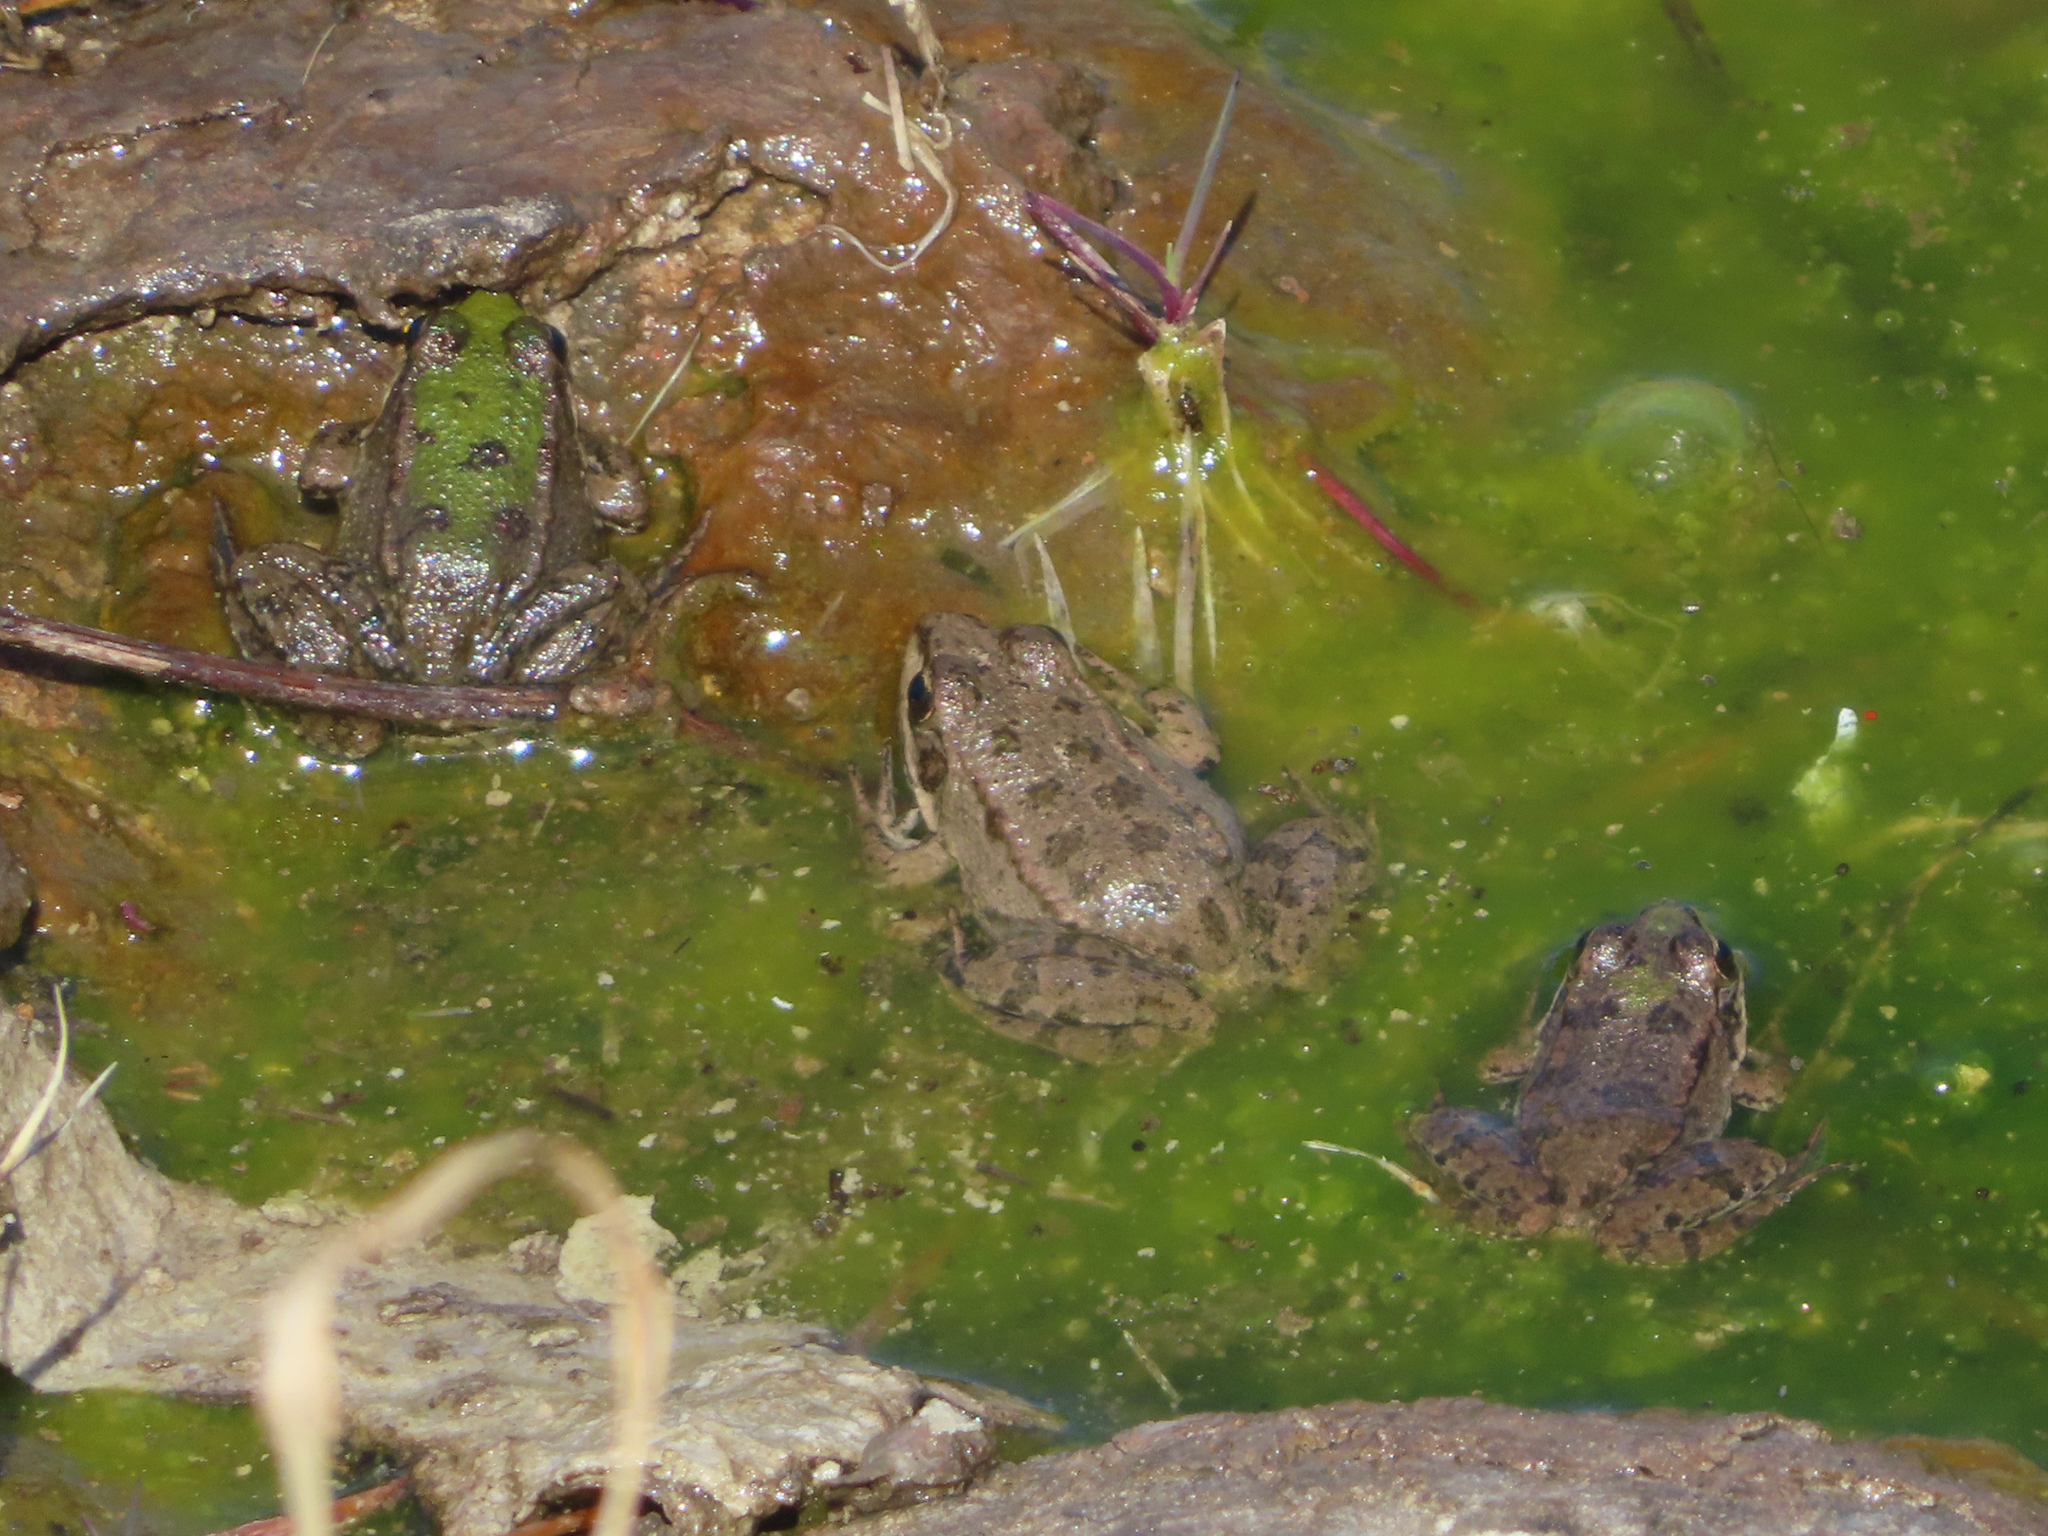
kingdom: Animalia
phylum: Chordata
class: Amphibia
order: Anura
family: Ranidae
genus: Pelophylax
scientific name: Pelophylax ridibundus
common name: Marsh frog
